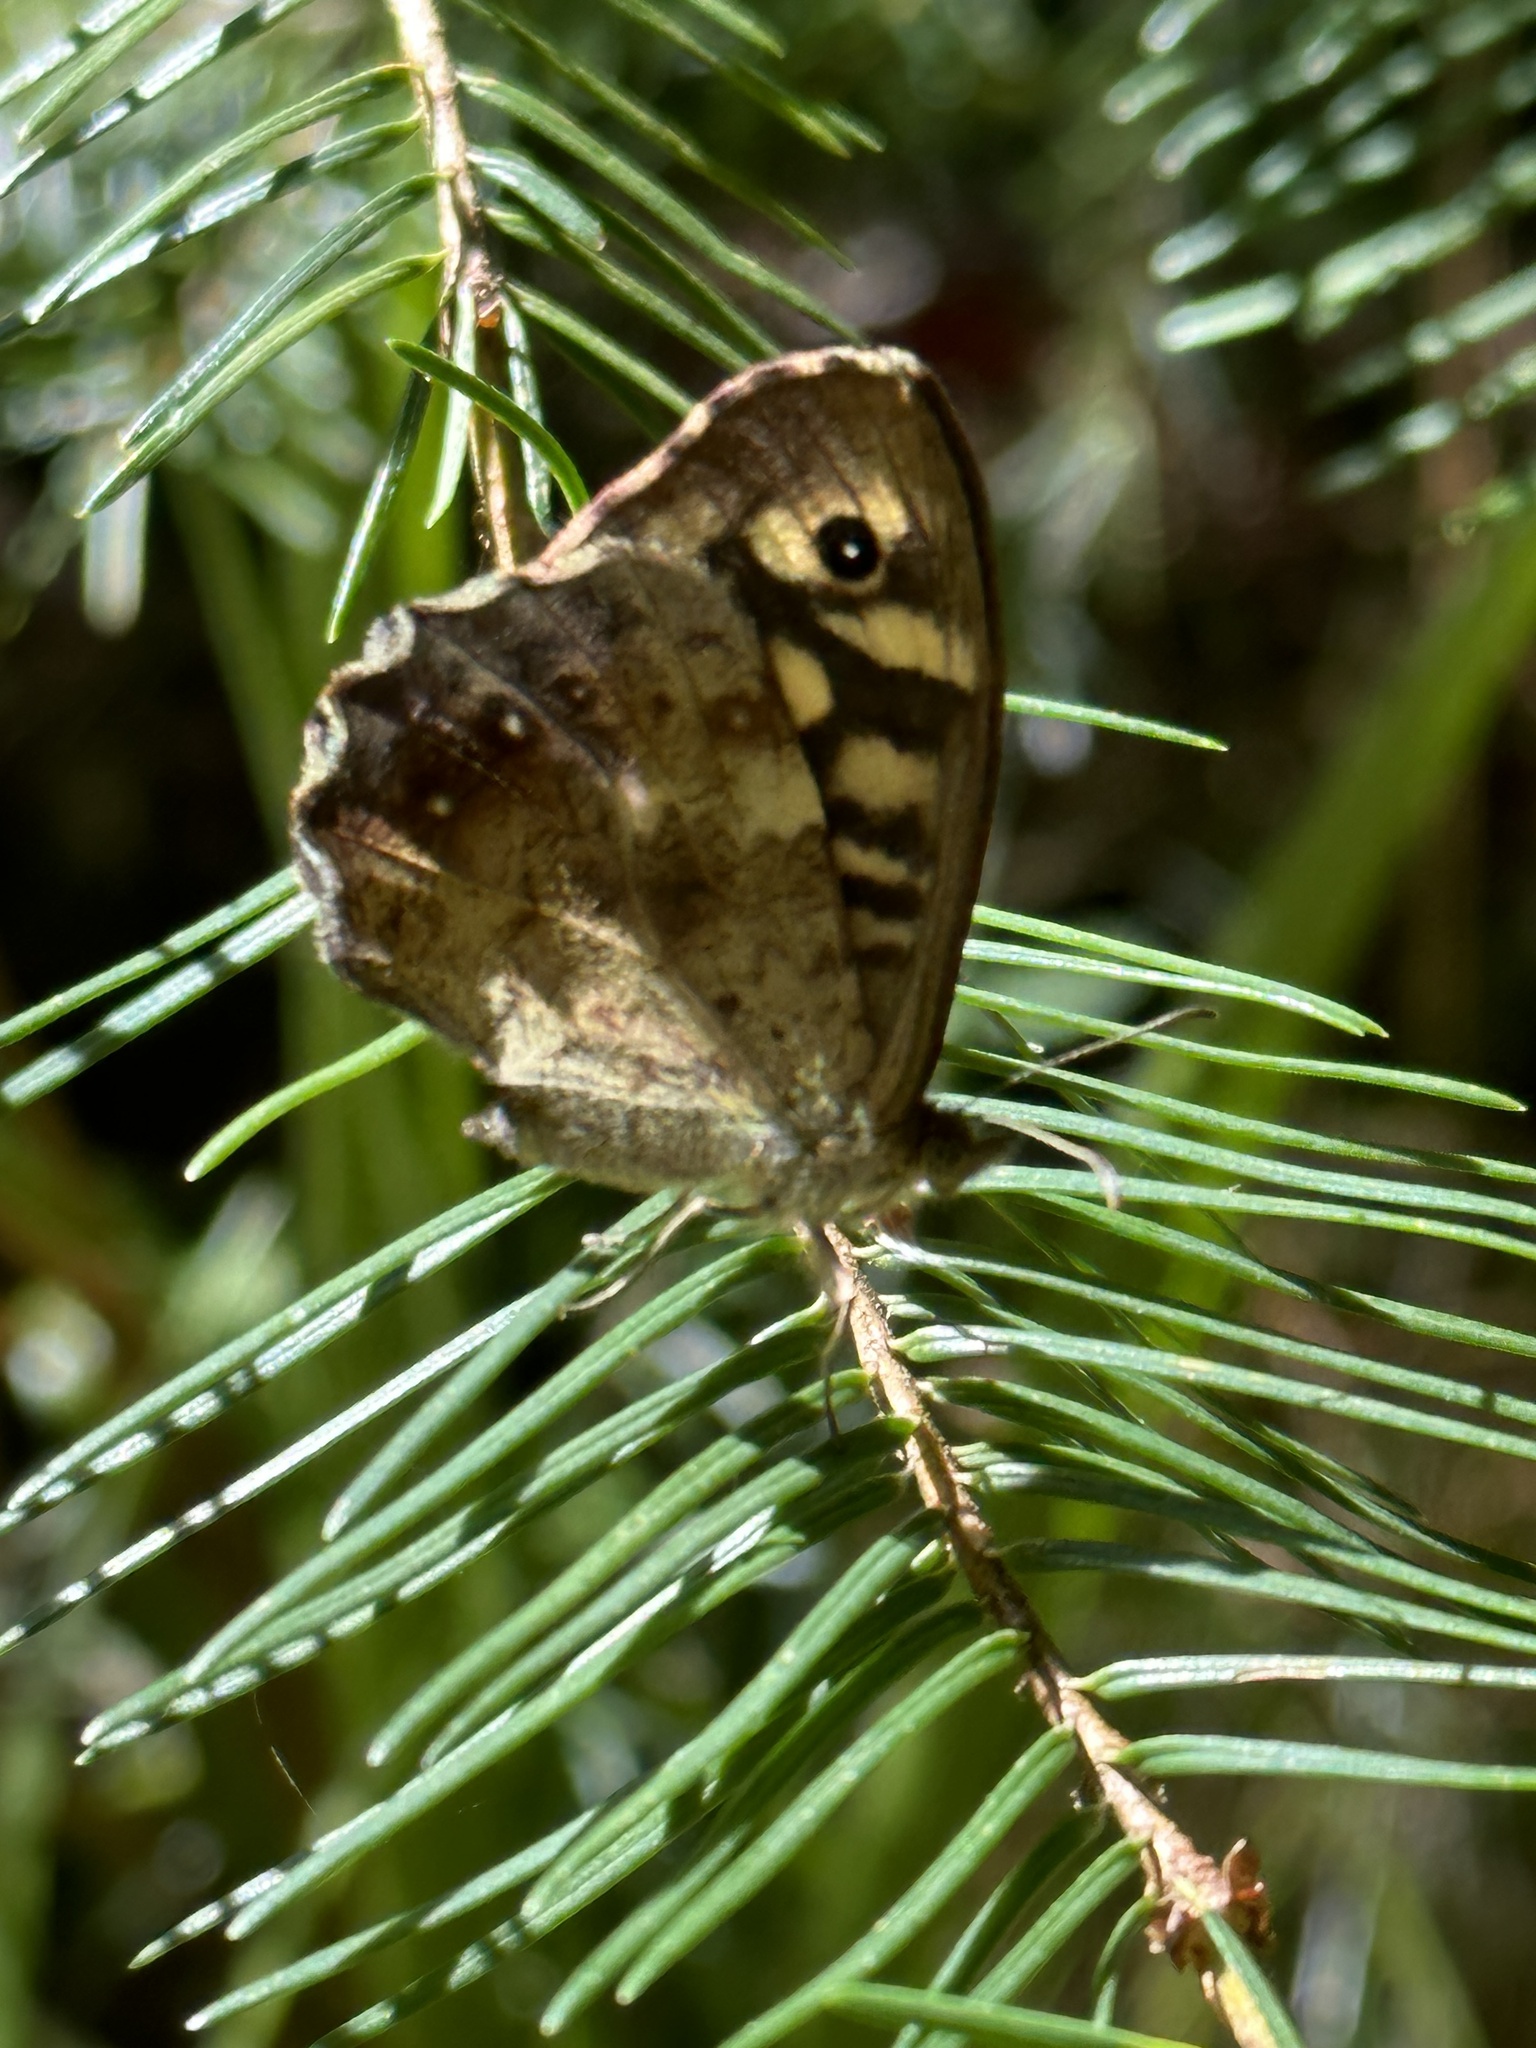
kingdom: Animalia
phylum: Arthropoda
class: Insecta
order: Lepidoptera
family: Nymphalidae
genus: Pararge
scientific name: Pararge aegeria
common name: Speckled wood
